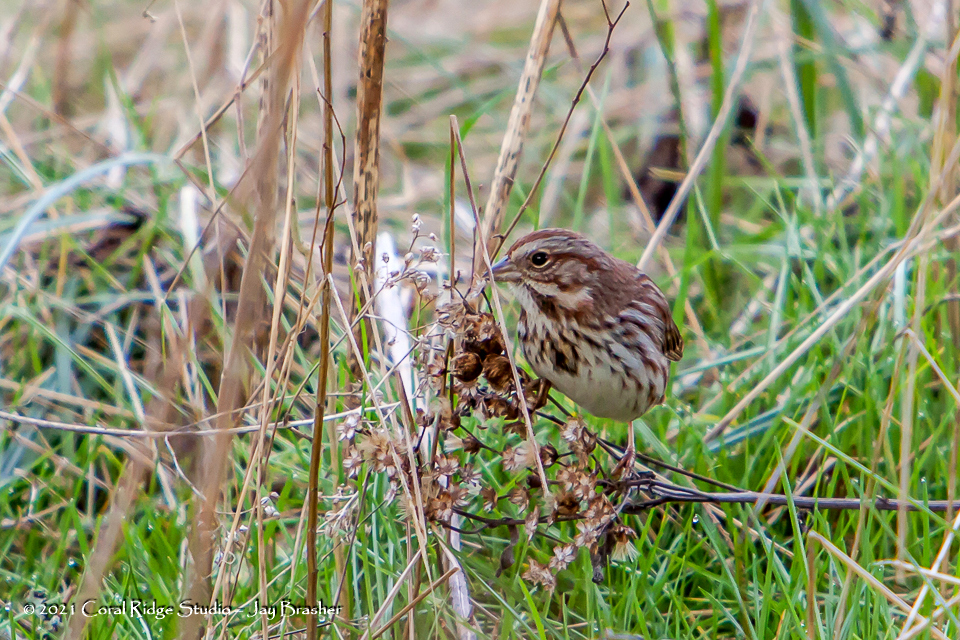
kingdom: Animalia
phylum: Chordata
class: Aves
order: Passeriformes
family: Passerellidae
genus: Melospiza
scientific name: Melospiza melodia
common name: Song sparrow
